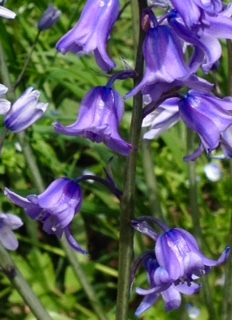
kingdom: Plantae
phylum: Tracheophyta
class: Liliopsida
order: Asparagales
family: Asparagaceae
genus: Hyacinthoides
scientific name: Hyacinthoides hispanica
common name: Spanish bluebell
